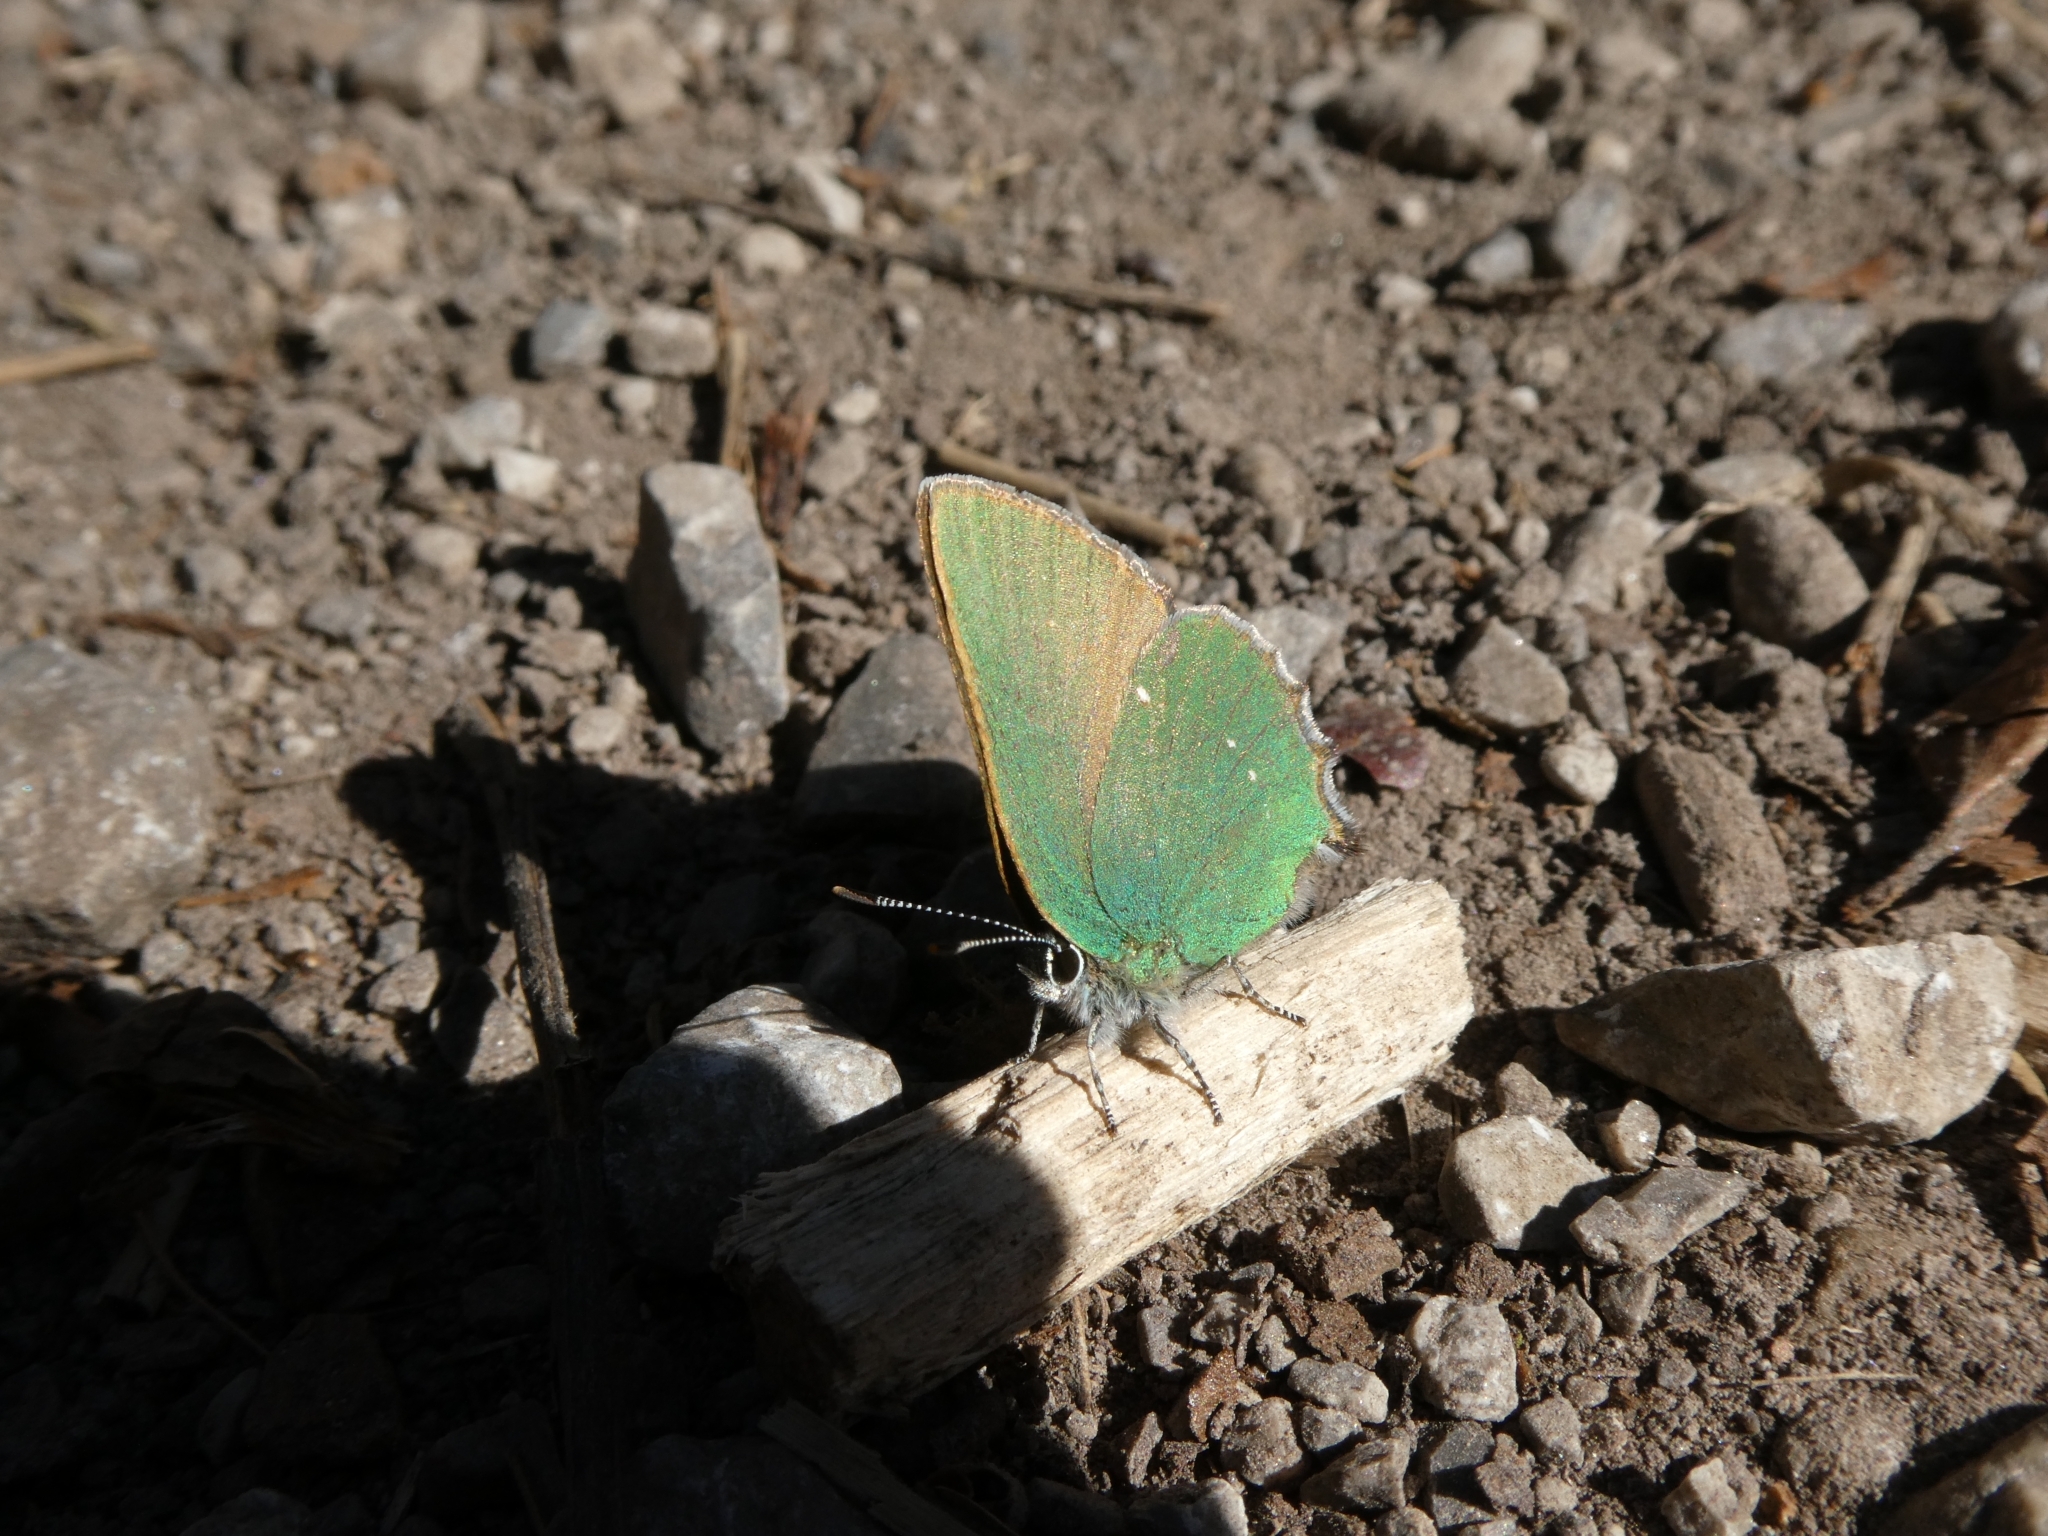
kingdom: Animalia
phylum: Arthropoda
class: Insecta
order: Lepidoptera
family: Lycaenidae
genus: Callophrys
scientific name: Callophrys rubi
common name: Green hairstreak
